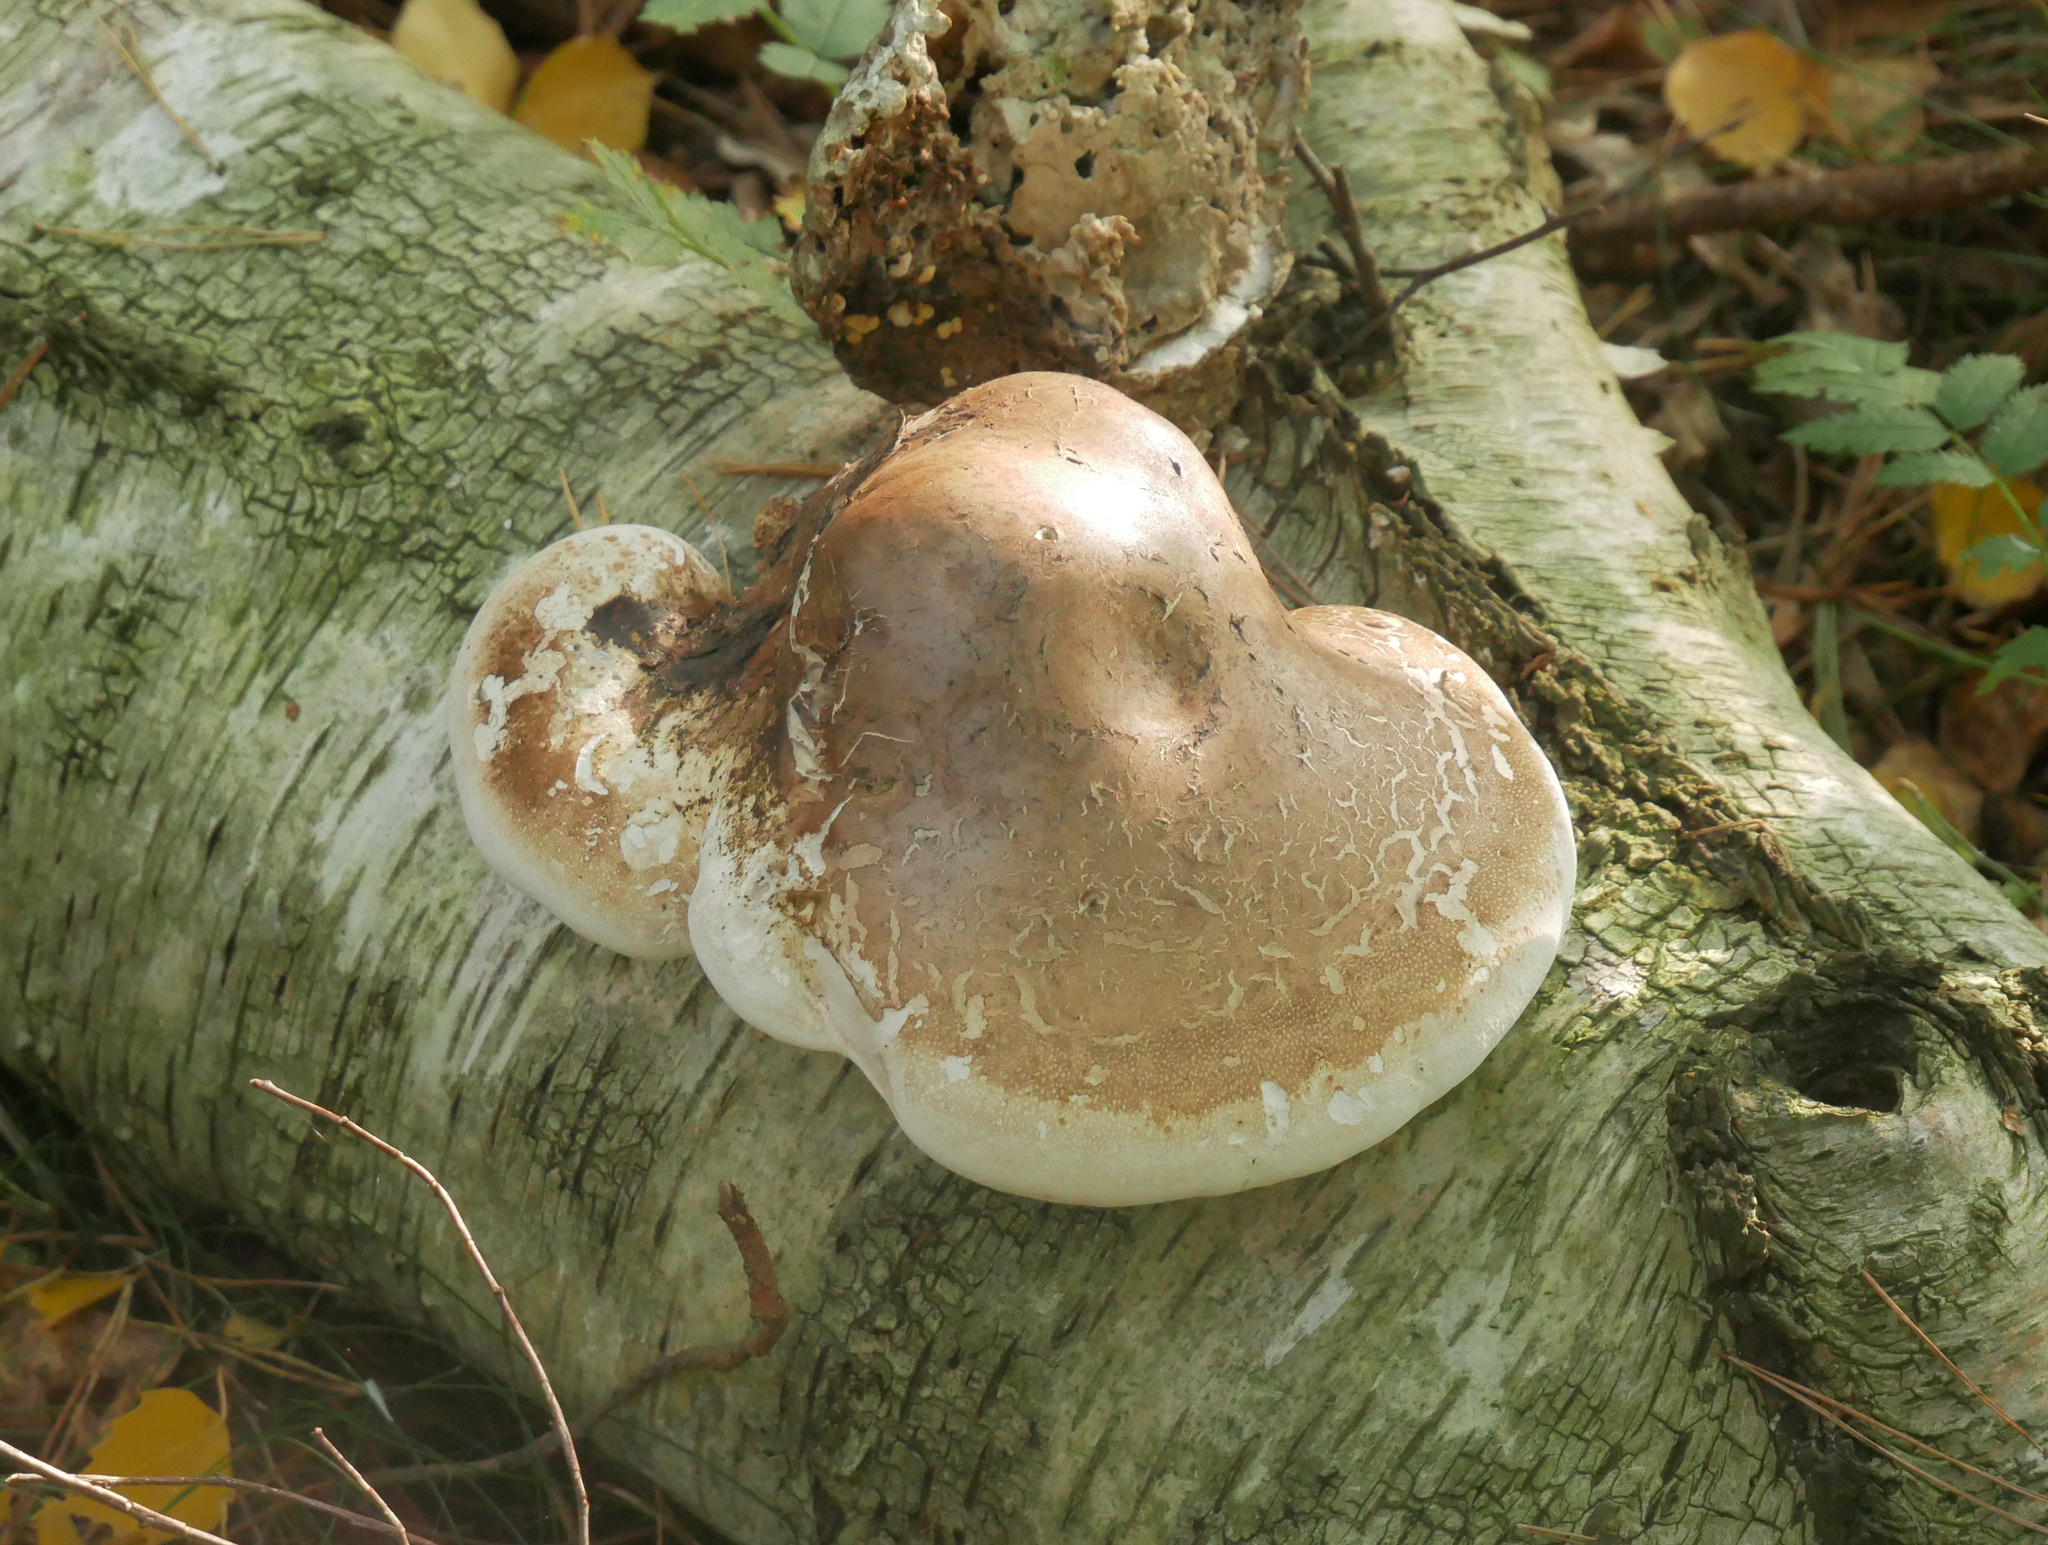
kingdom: Fungi
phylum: Basidiomycota
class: Agaricomycetes
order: Polyporales
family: Fomitopsidaceae
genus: Fomitopsis
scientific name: Fomitopsis betulina
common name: Birch polypore
